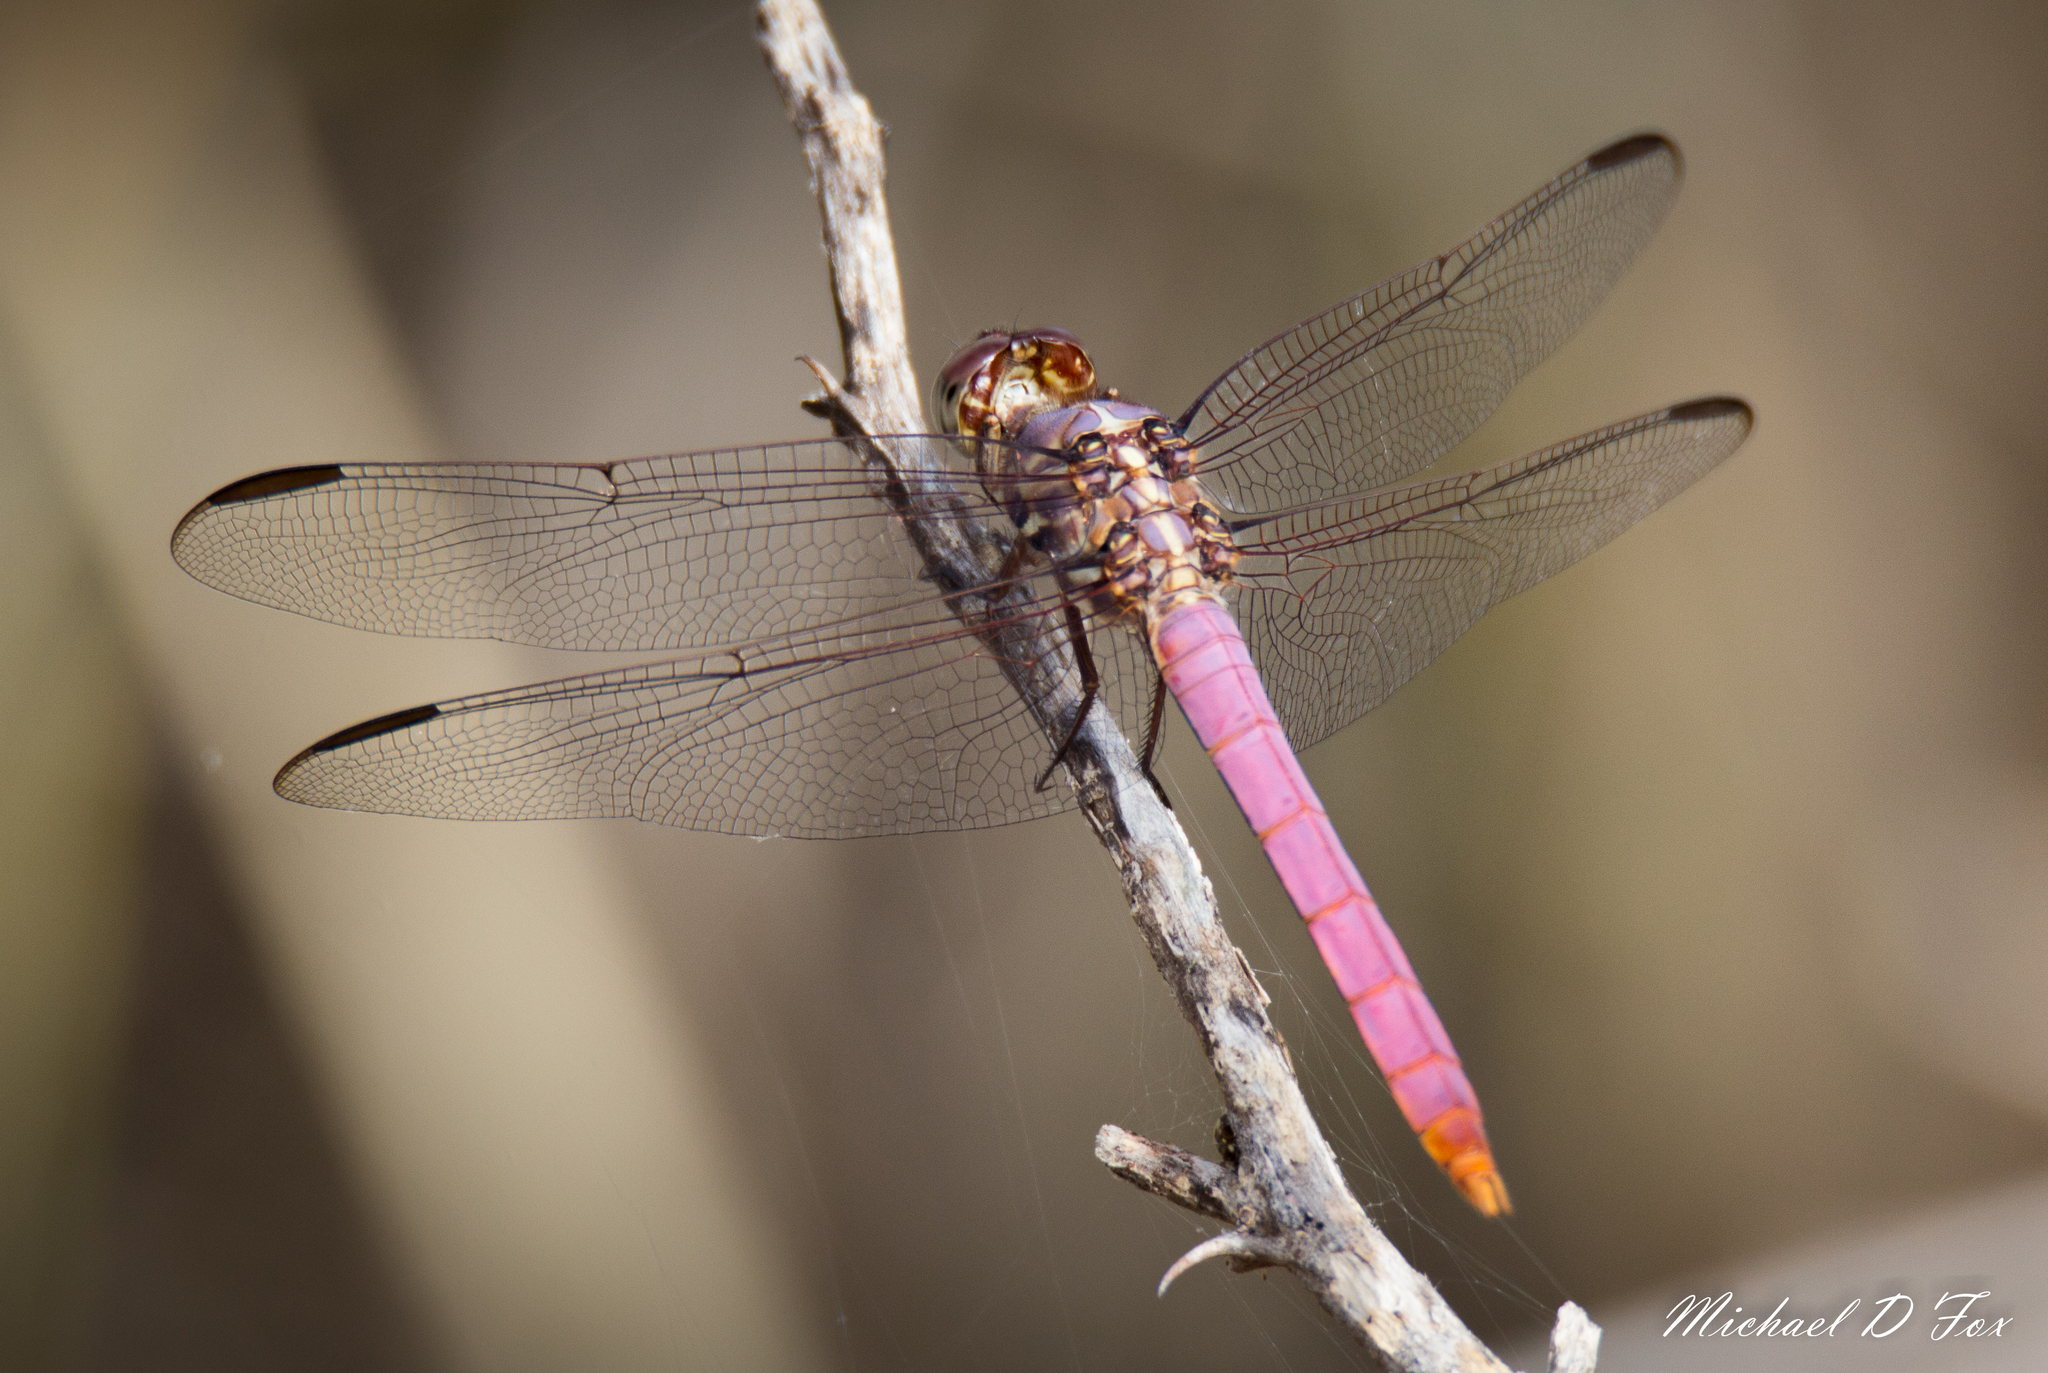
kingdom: Animalia
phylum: Arthropoda
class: Insecta
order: Odonata
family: Libellulidae
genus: Orthemis
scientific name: Orthemis ferruginea
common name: Roseate skimmer
